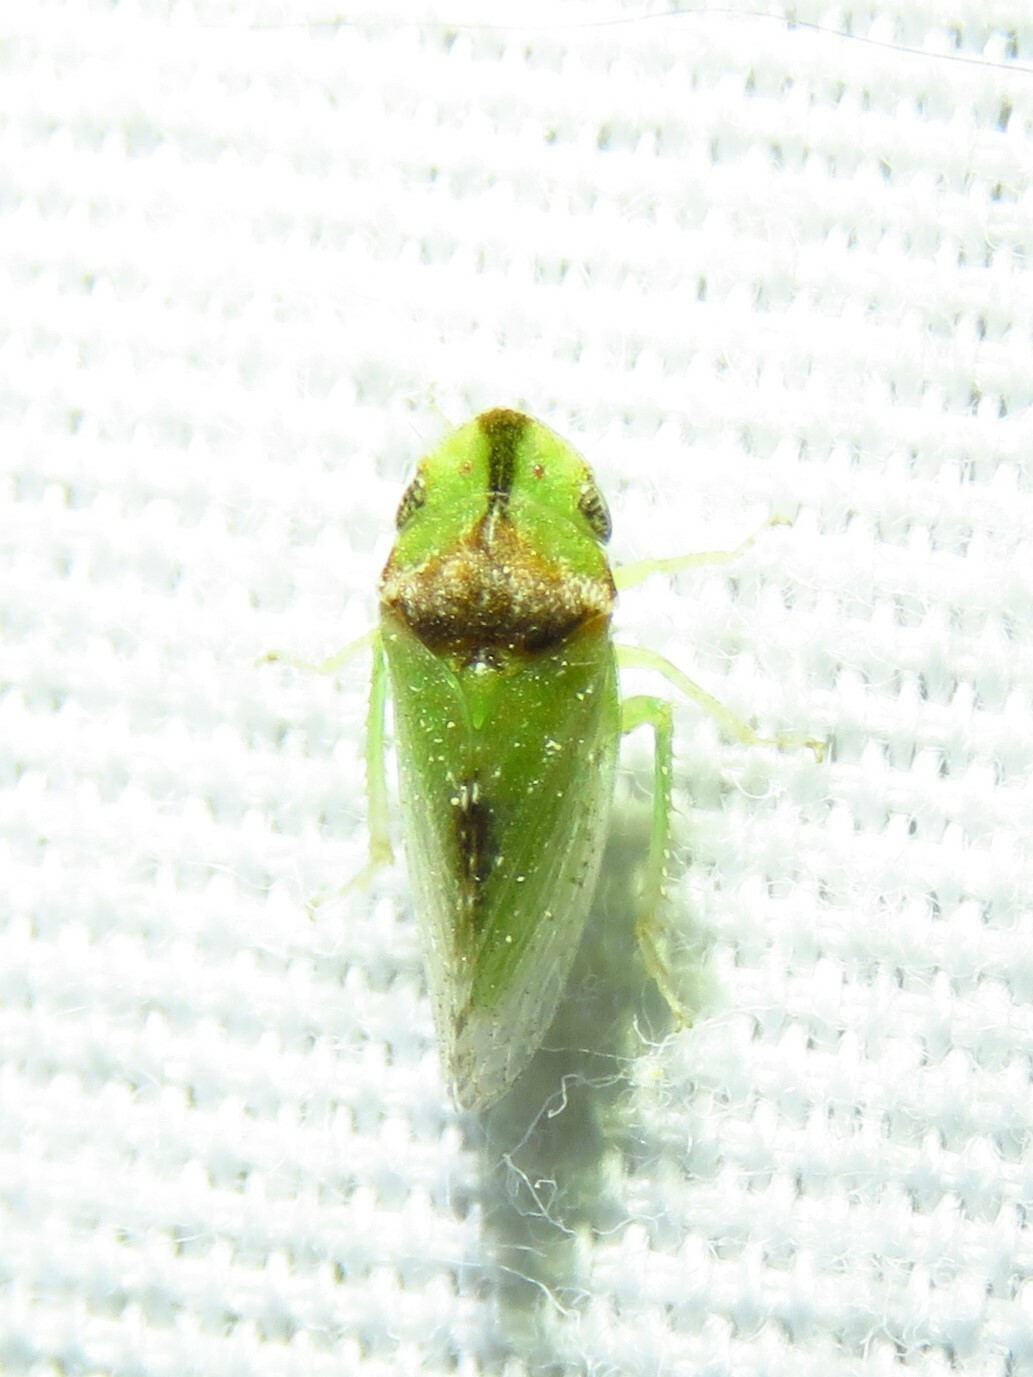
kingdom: Animalia
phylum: Arthropoda
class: Insecta
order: Hemiptera
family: Cicadellidae
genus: Xerophloea
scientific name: Xerophloea viridis
